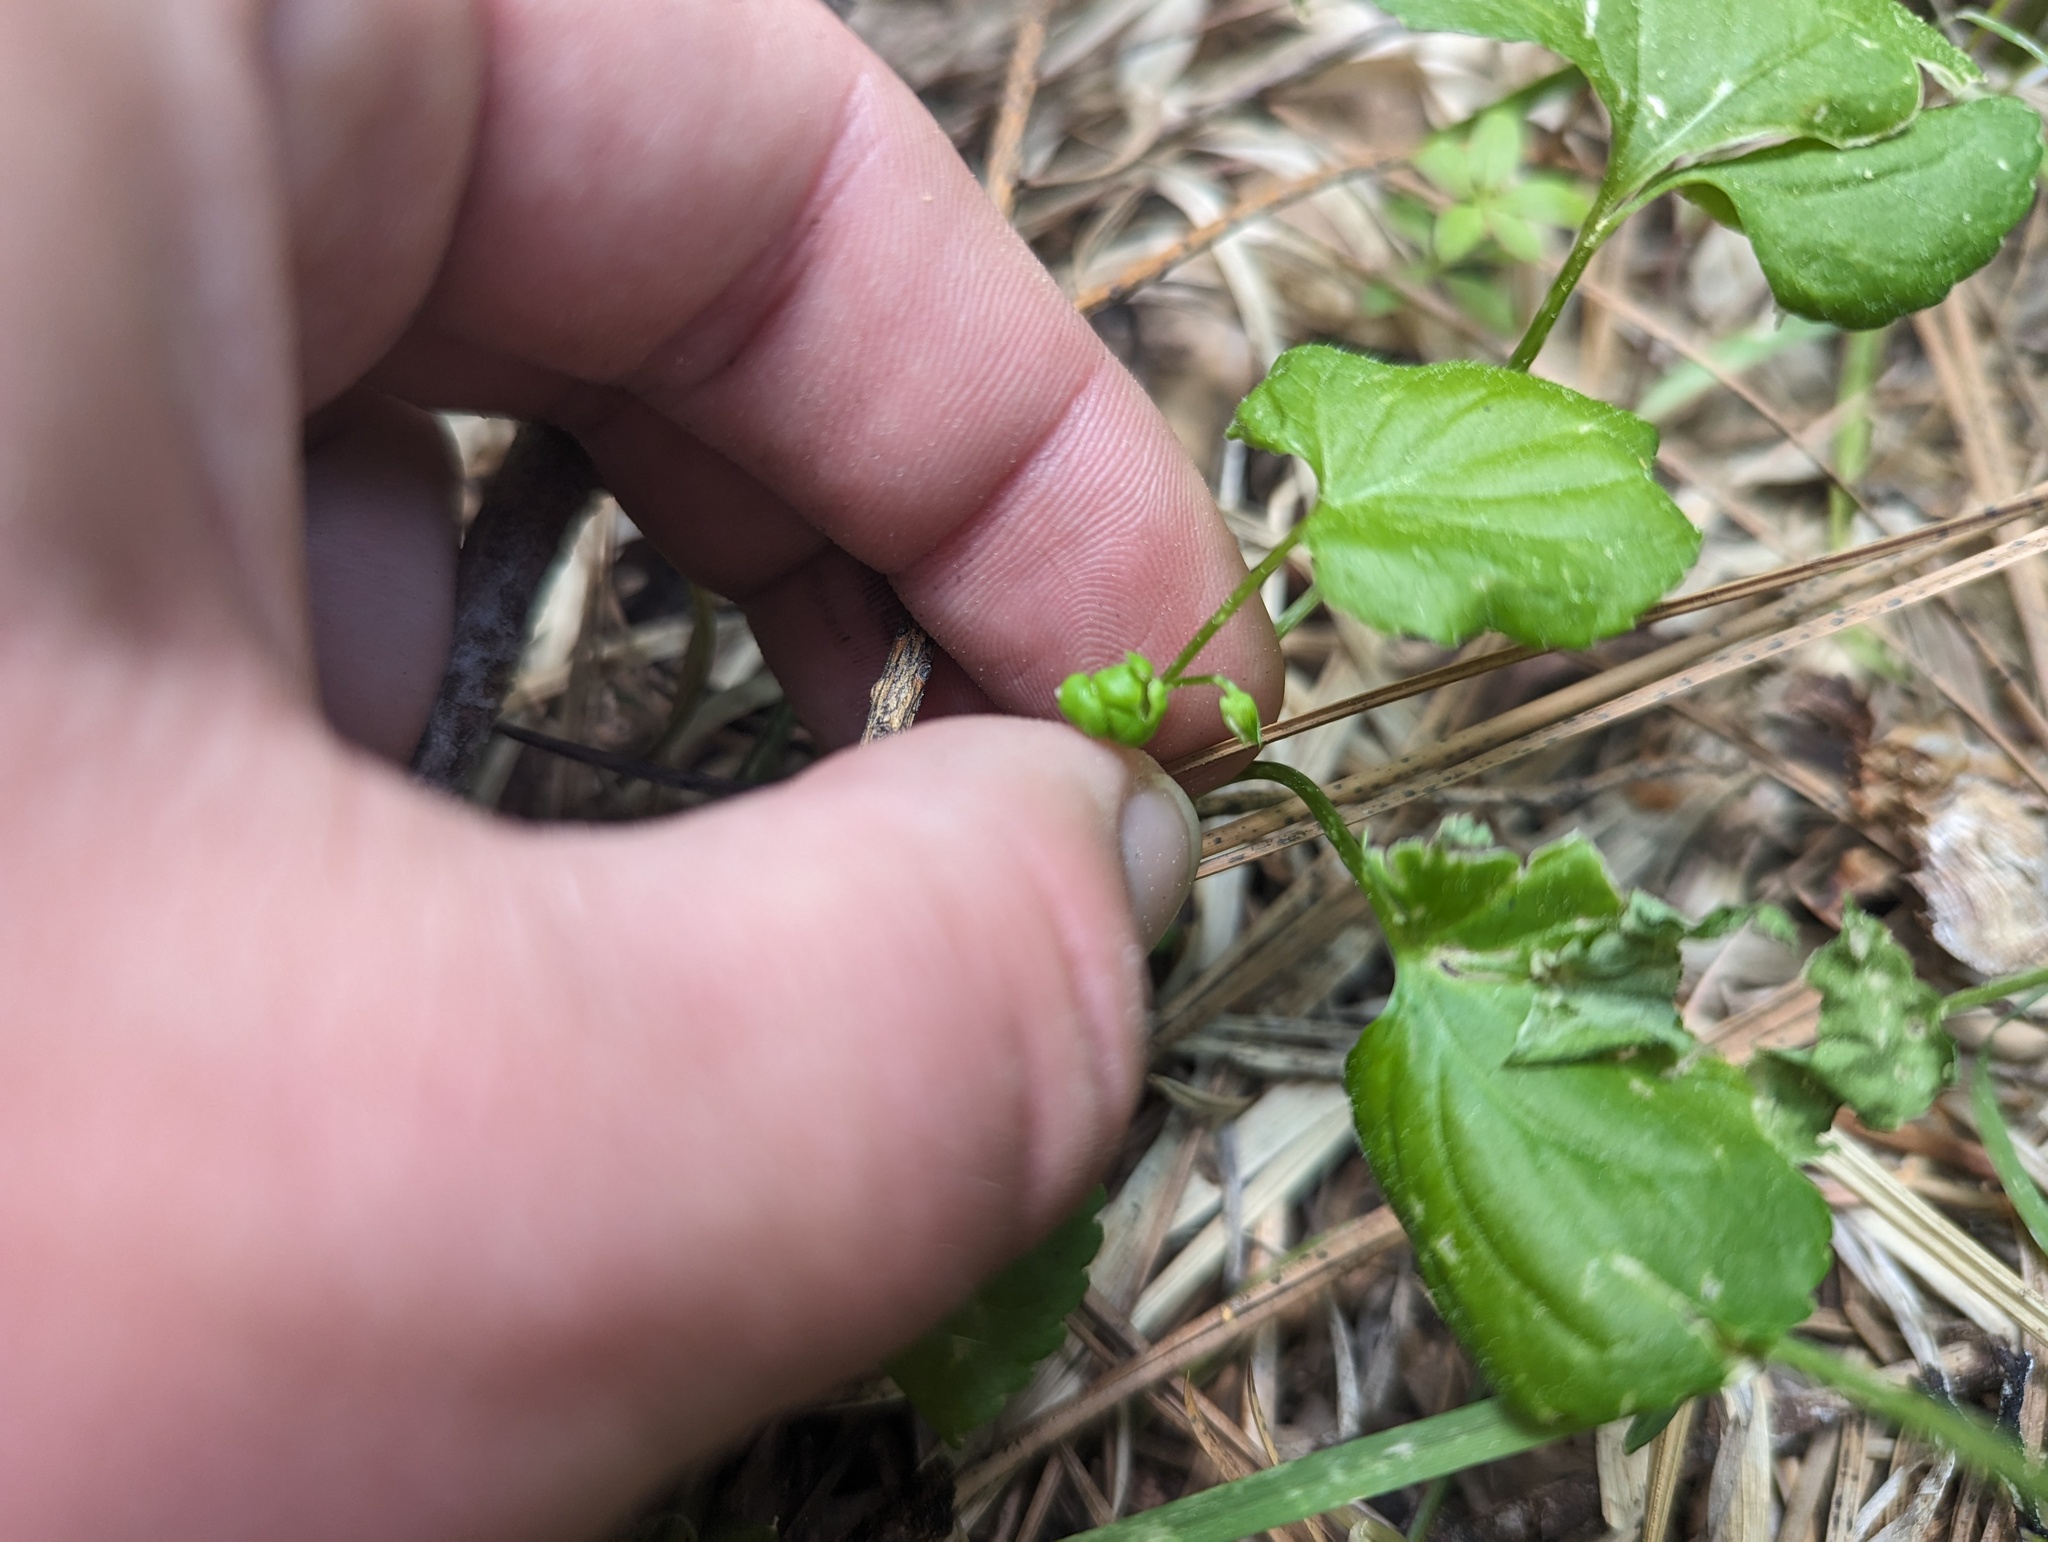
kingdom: Plantae
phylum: Tracheophyta
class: Magnoliopsida
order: Malpighiales
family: Violaceae
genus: Viola
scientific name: Viola glabella
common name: Stream violet
